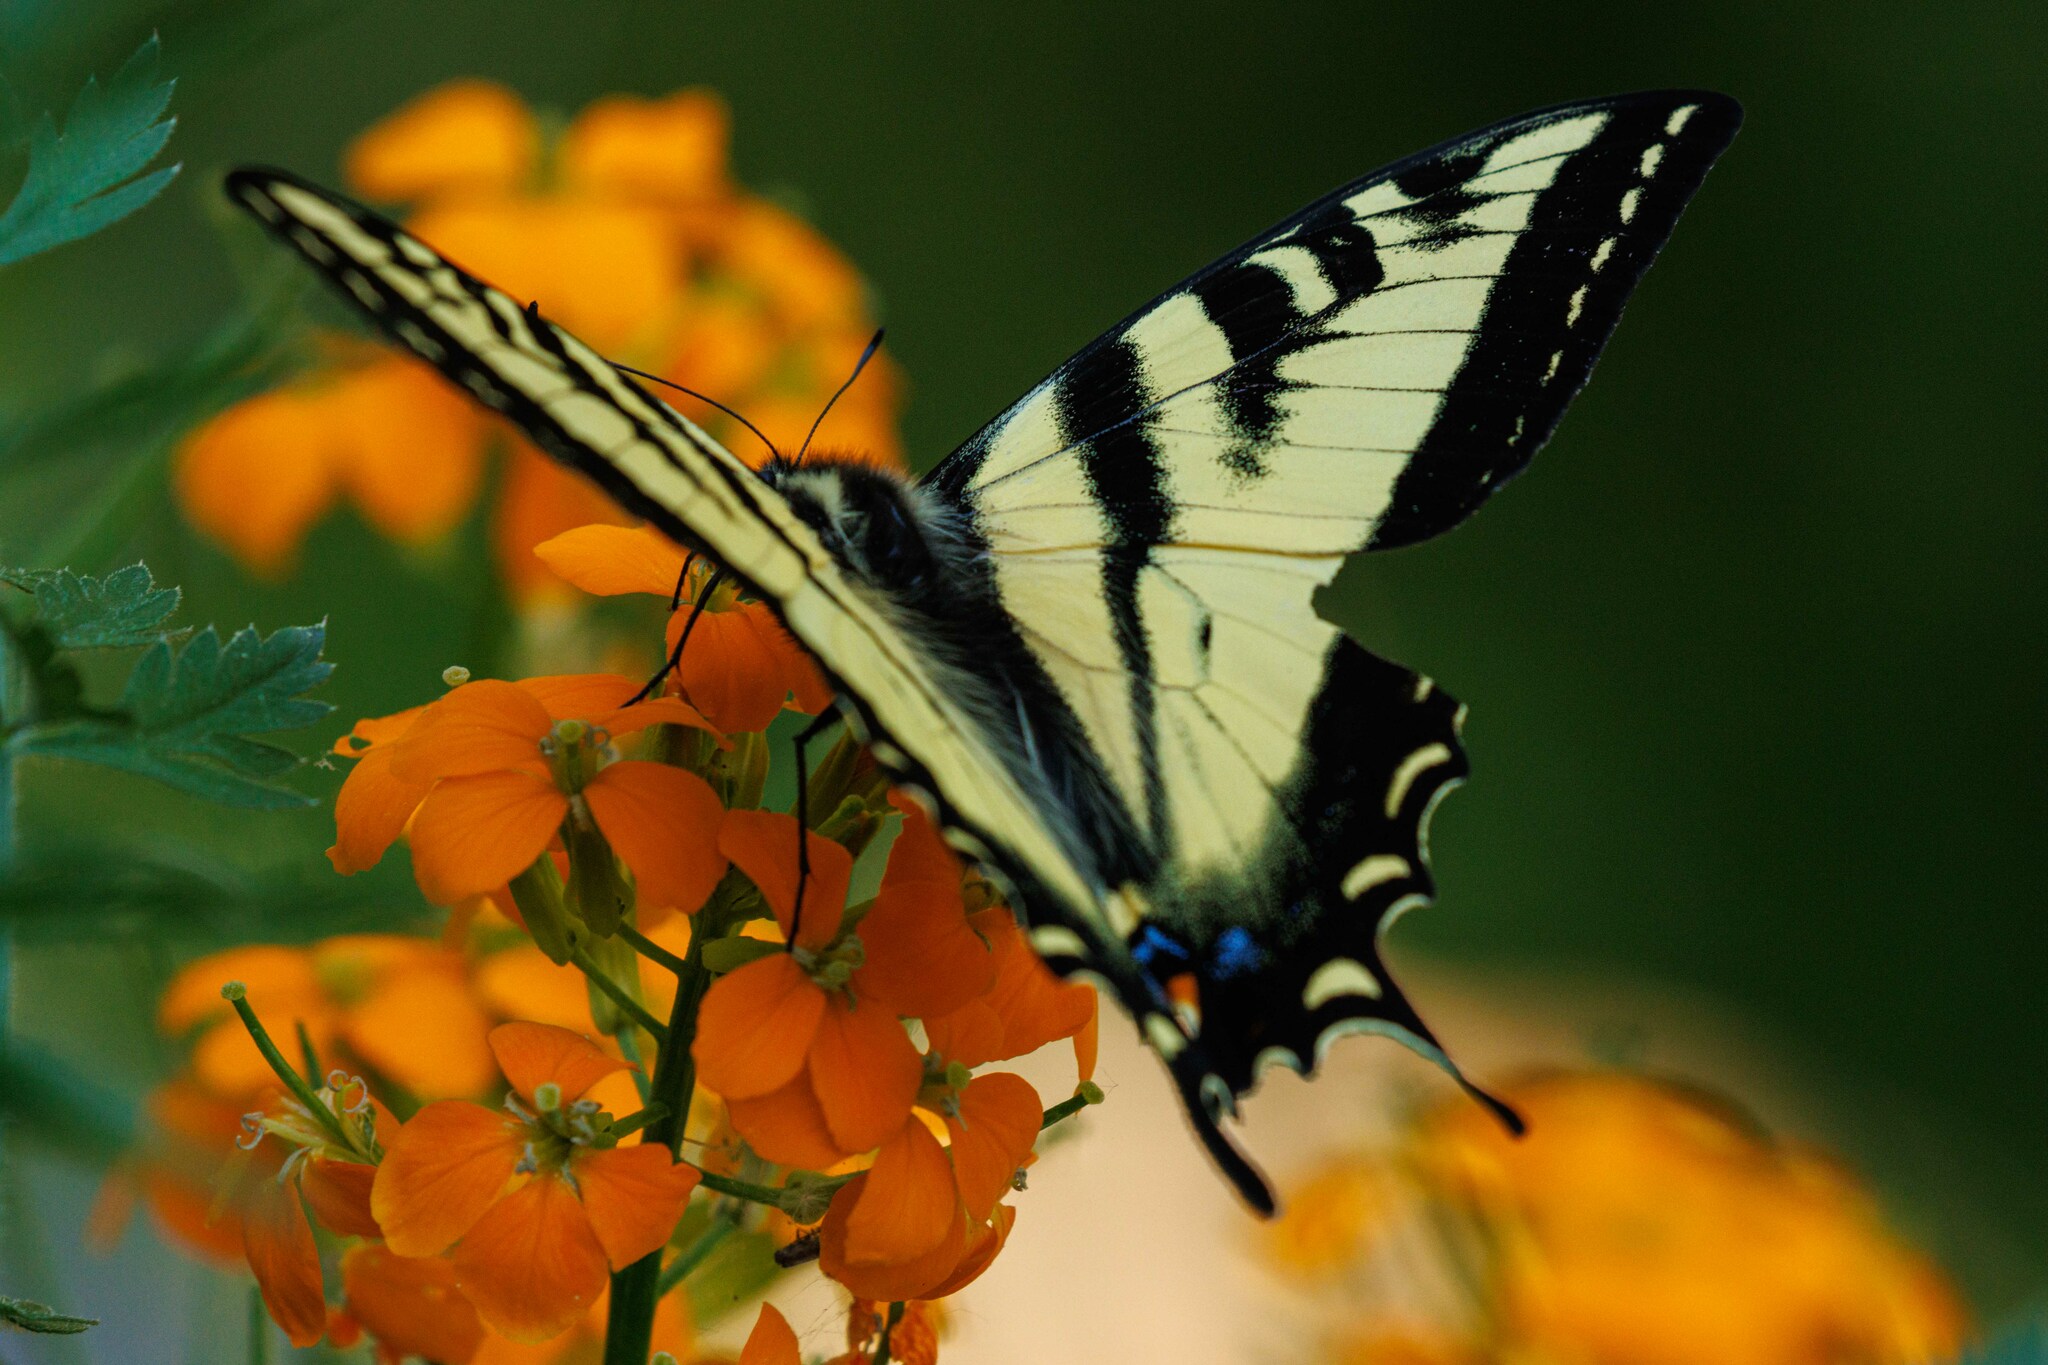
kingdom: Animalia
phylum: Arthropoda
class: Insecta
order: Lepidoptera
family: Papilionidae
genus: Papilio
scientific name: Papilio rutulus
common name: Western tiger swallowtail
